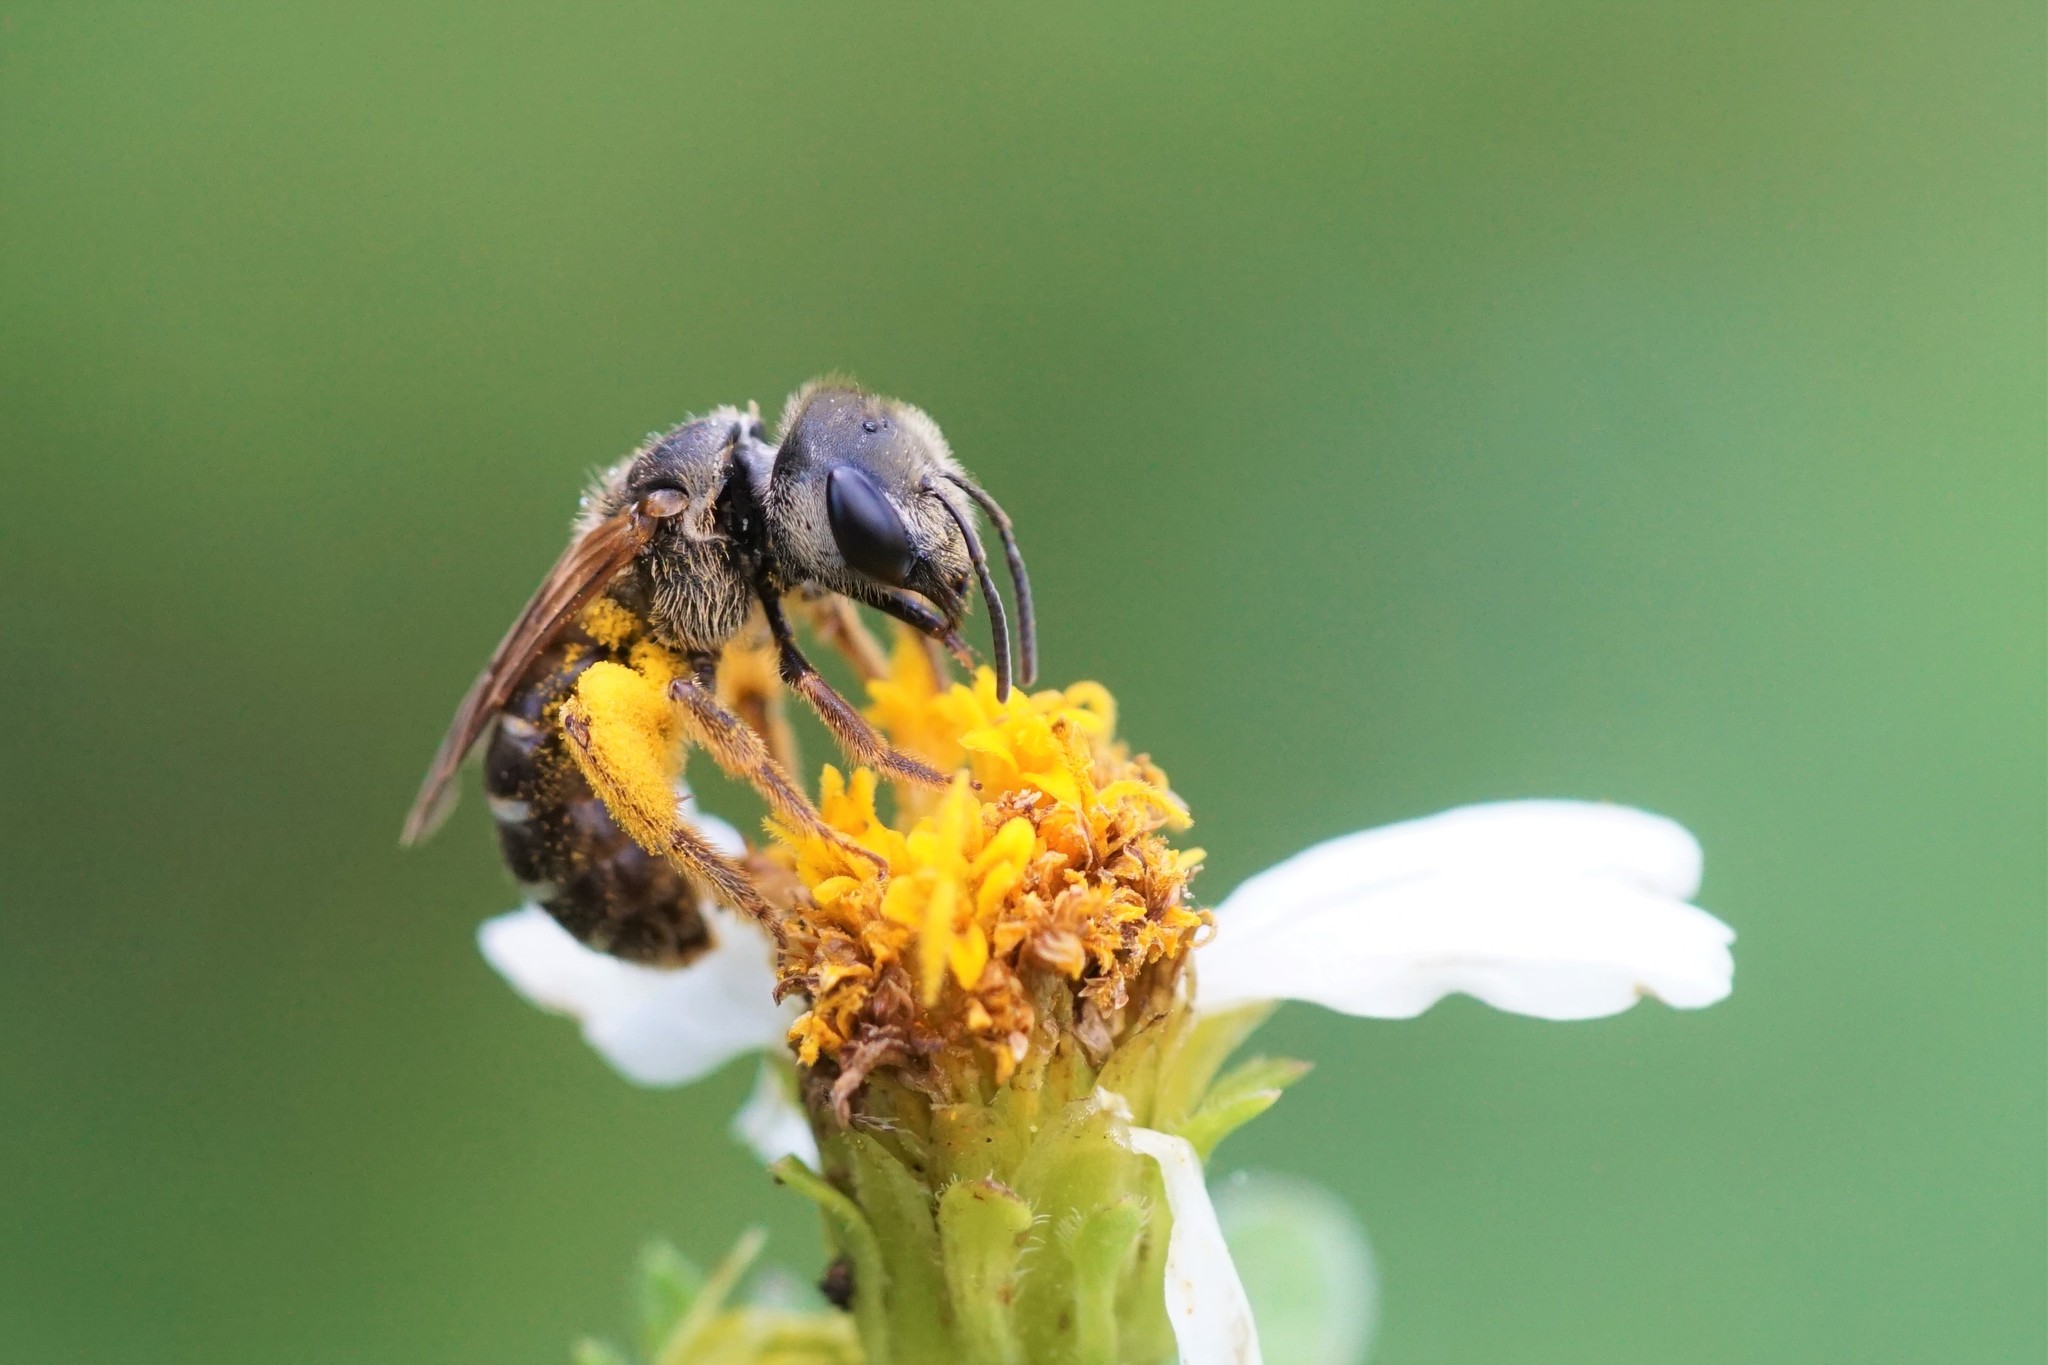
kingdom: Animalia
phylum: Arthropoda
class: Insecta
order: Hymenoptera
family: Halictidae
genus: Halictus
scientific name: Halictus poeyi
